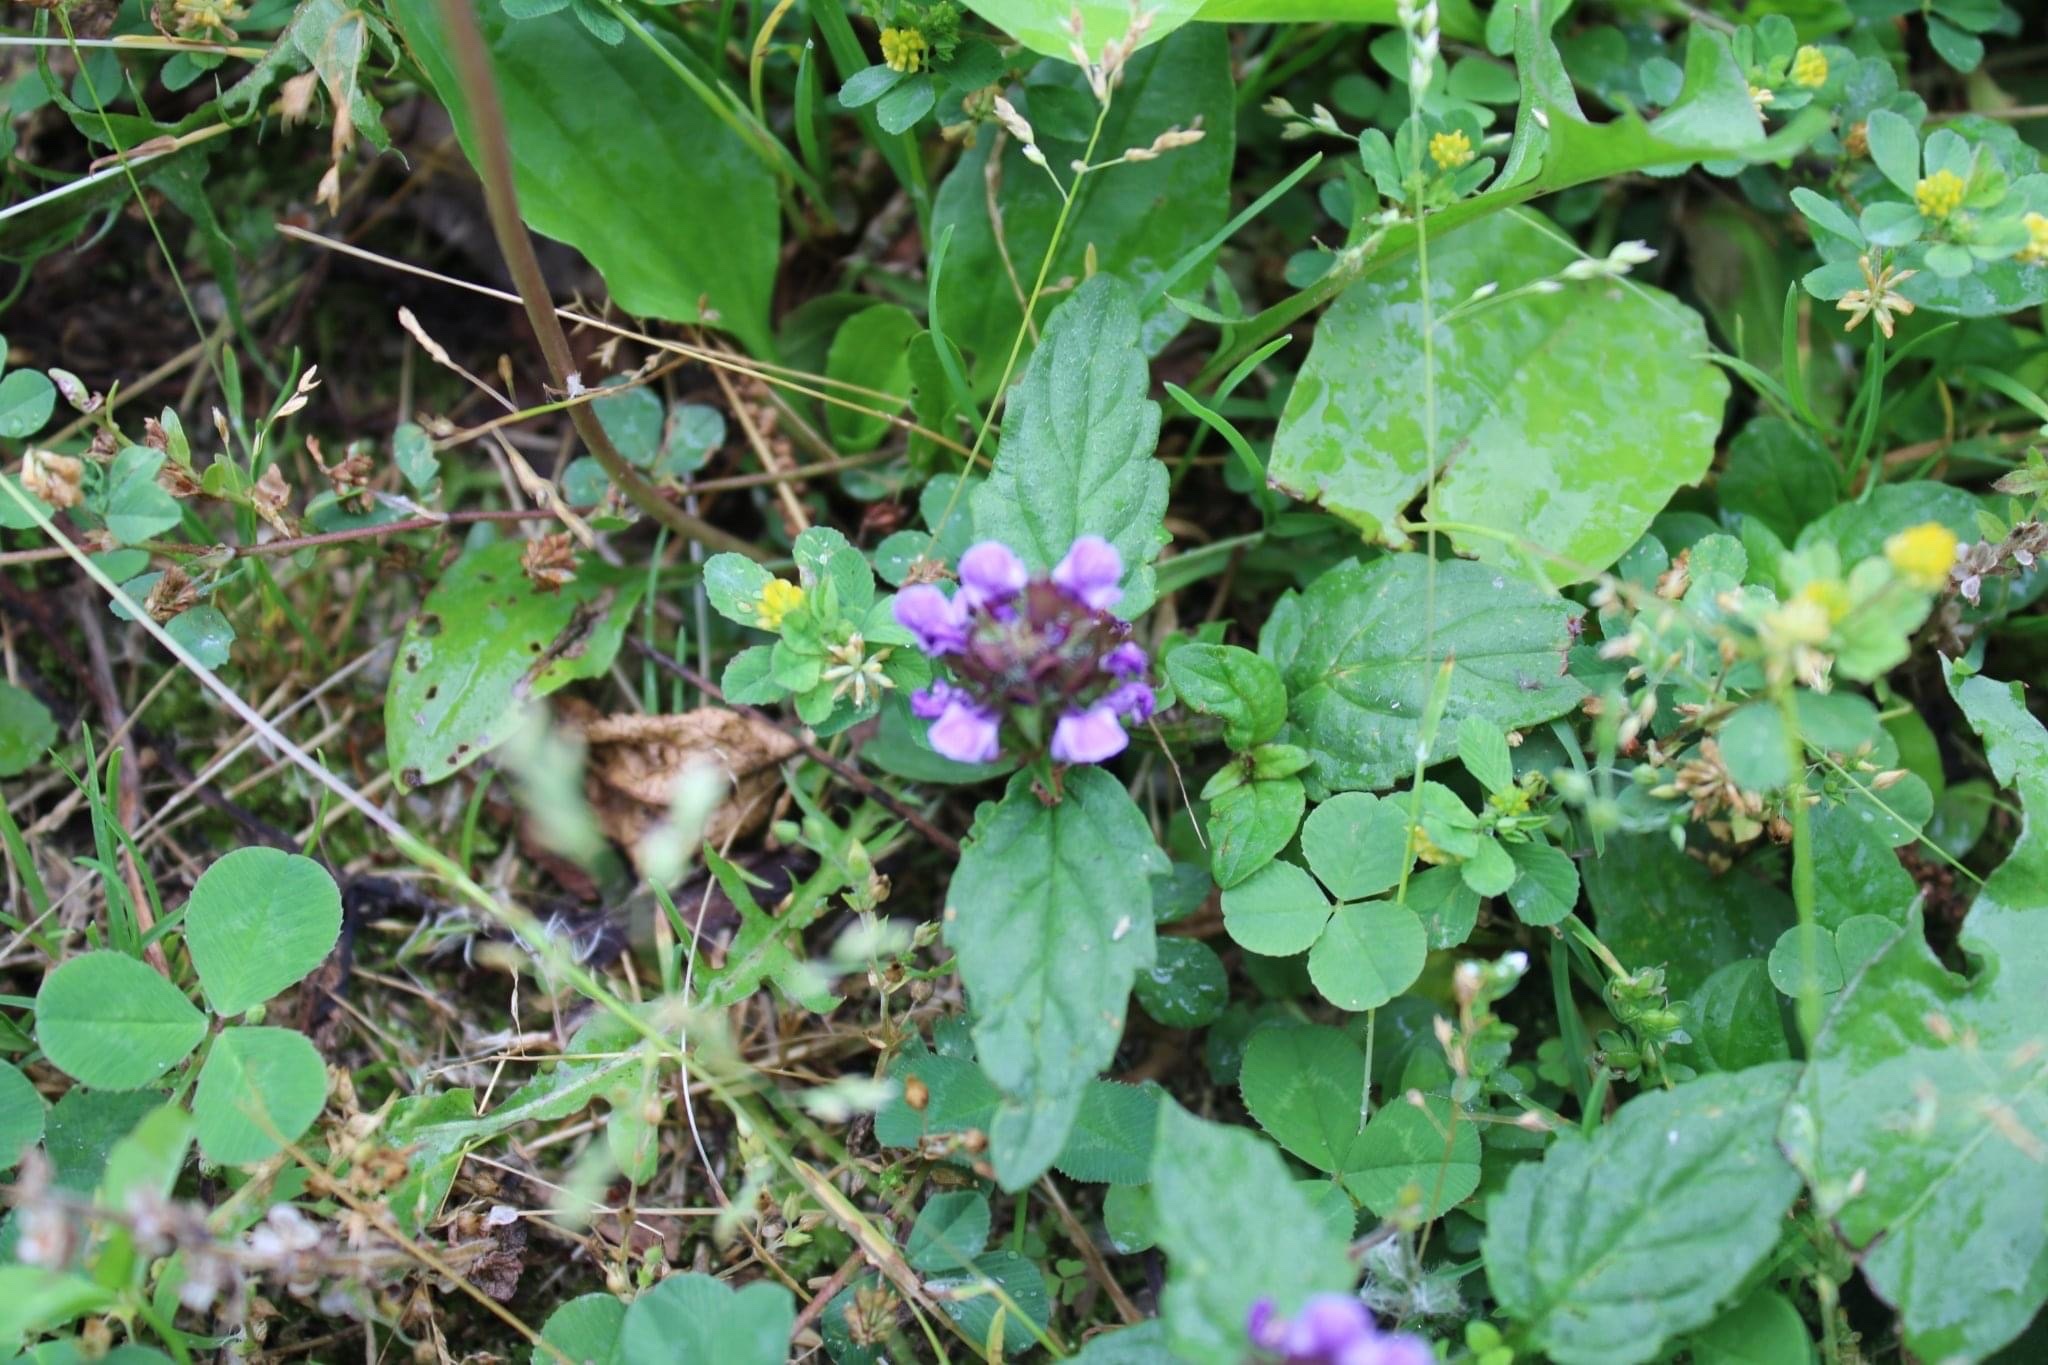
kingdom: Plantae
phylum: Tracheophyta
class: Magnoliopsida
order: Lamiales
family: Lamiaceae
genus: Prunella
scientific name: Prunella vulgaris
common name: Heal-all
